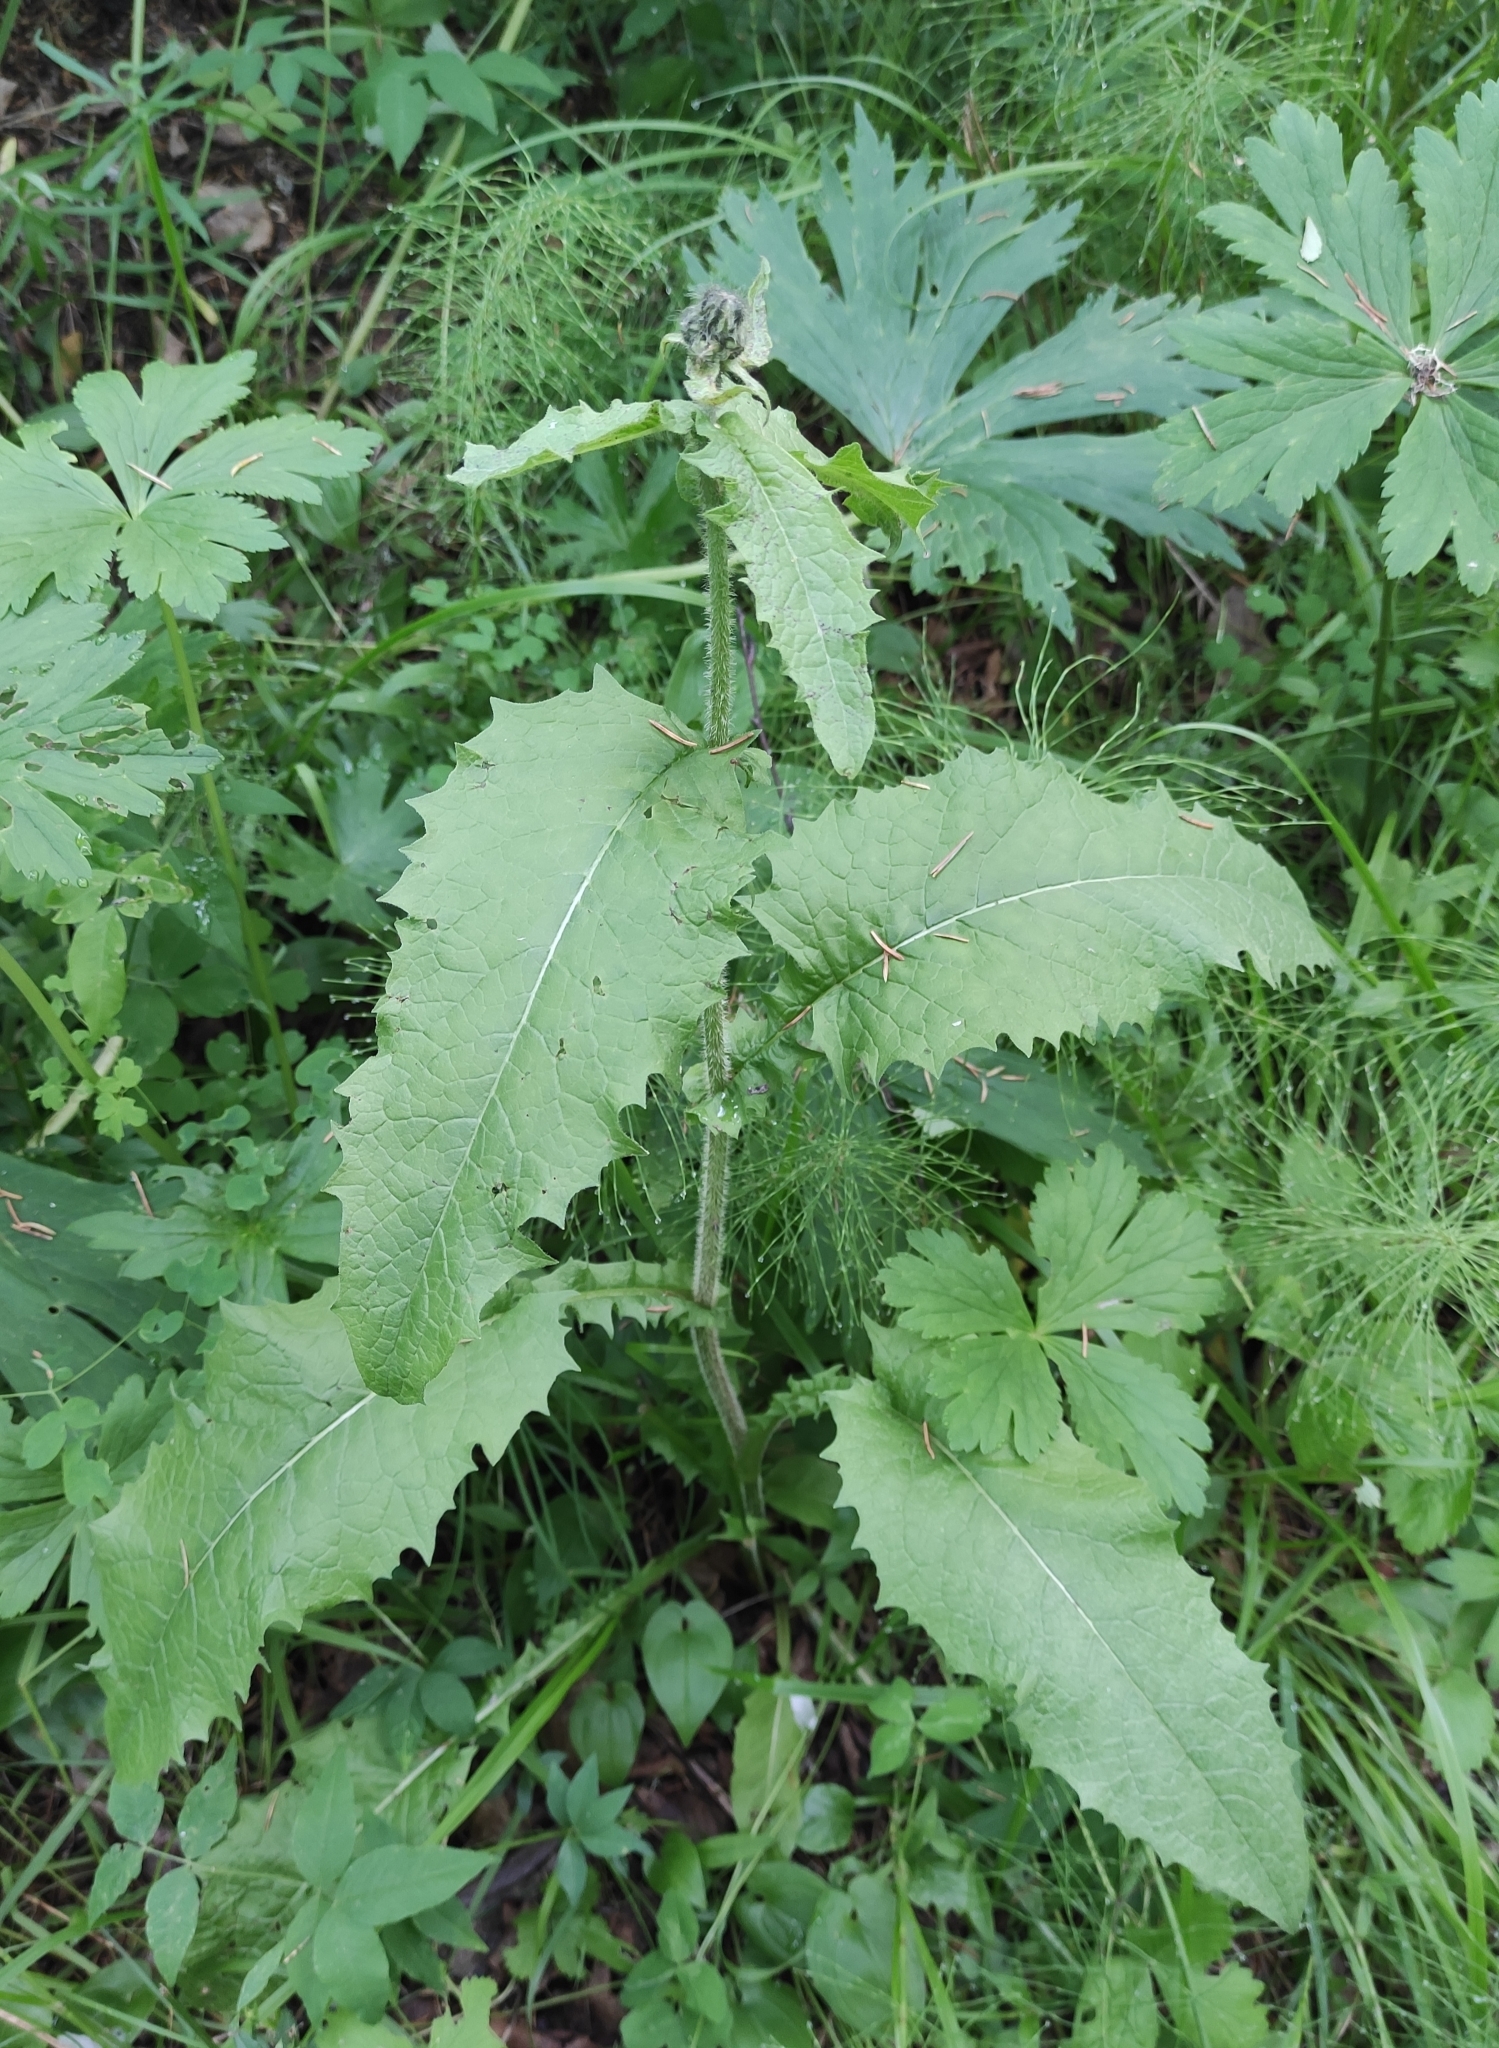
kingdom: Plantae
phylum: Tracheophyta
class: Magnoliopsida
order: Asterales
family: Asteraceae
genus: Crepis
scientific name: Crepis sibirica
